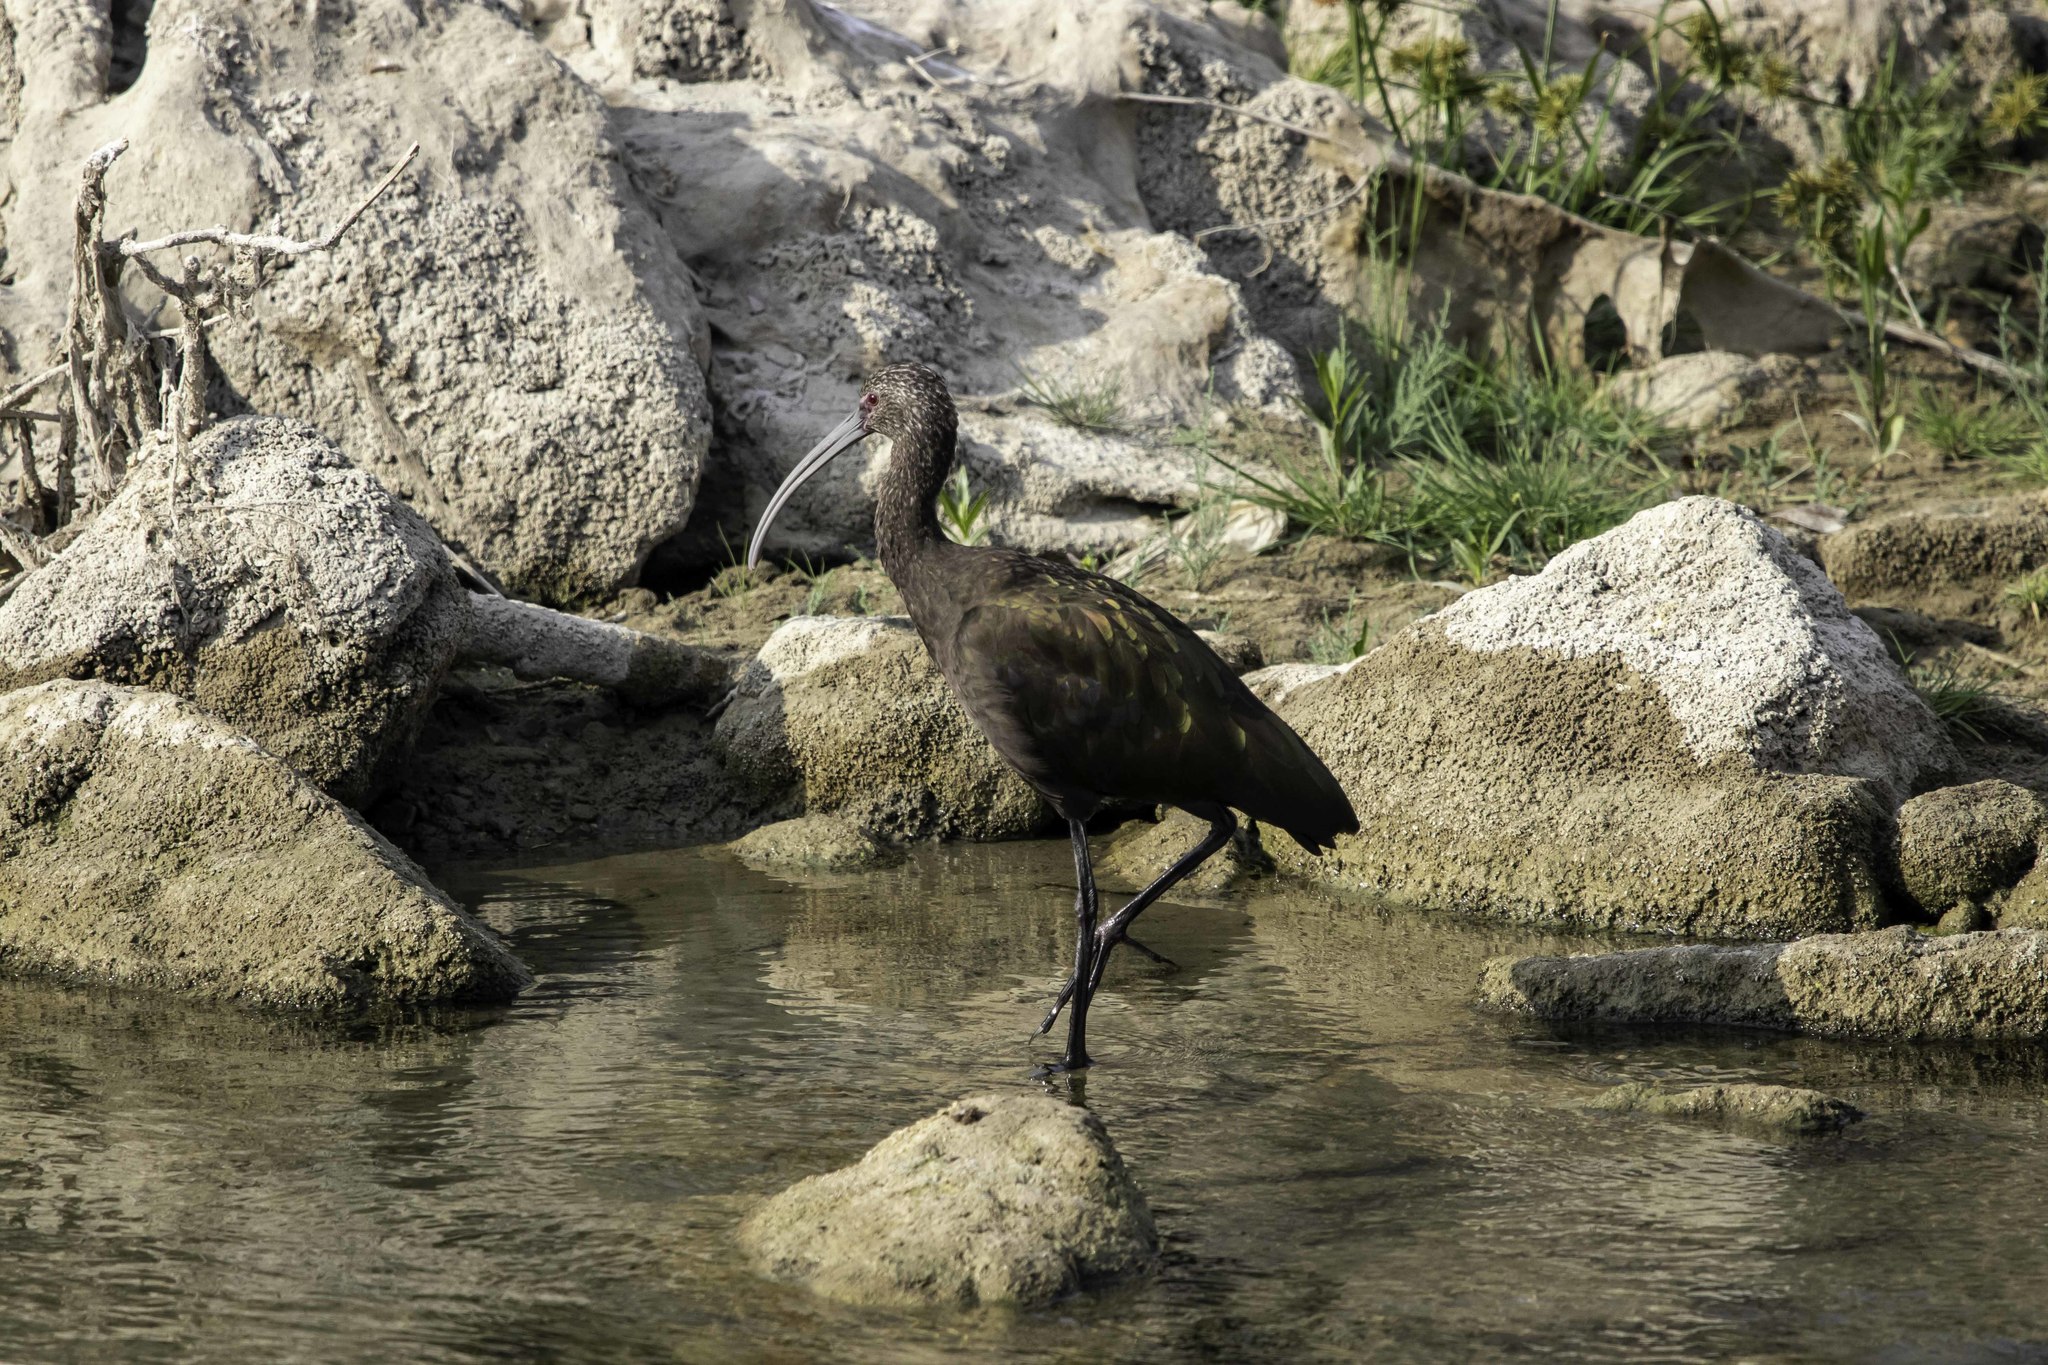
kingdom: Animalia
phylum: Chordata
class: Aves
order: Pelecaniformes
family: Threskiornithidae
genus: Plegadis
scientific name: Plegadis chihi
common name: White-faced ibis
